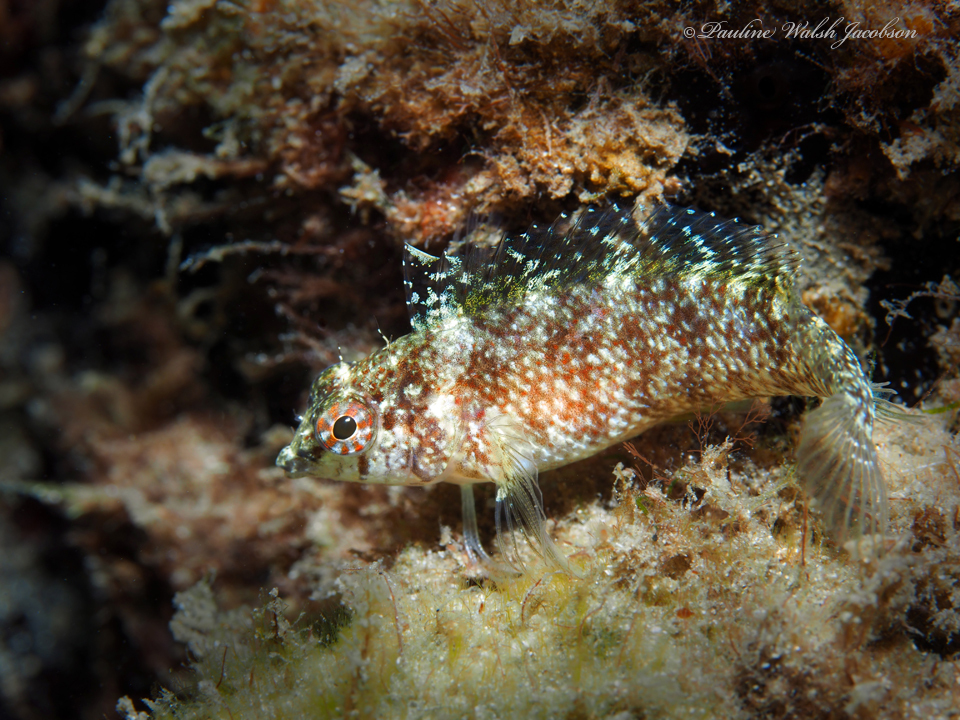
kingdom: Animalia
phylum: Chordata
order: Perciformes
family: Labrisomidae
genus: Malacoctenus
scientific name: Malacoctenus macropus
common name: Rosy blenny
